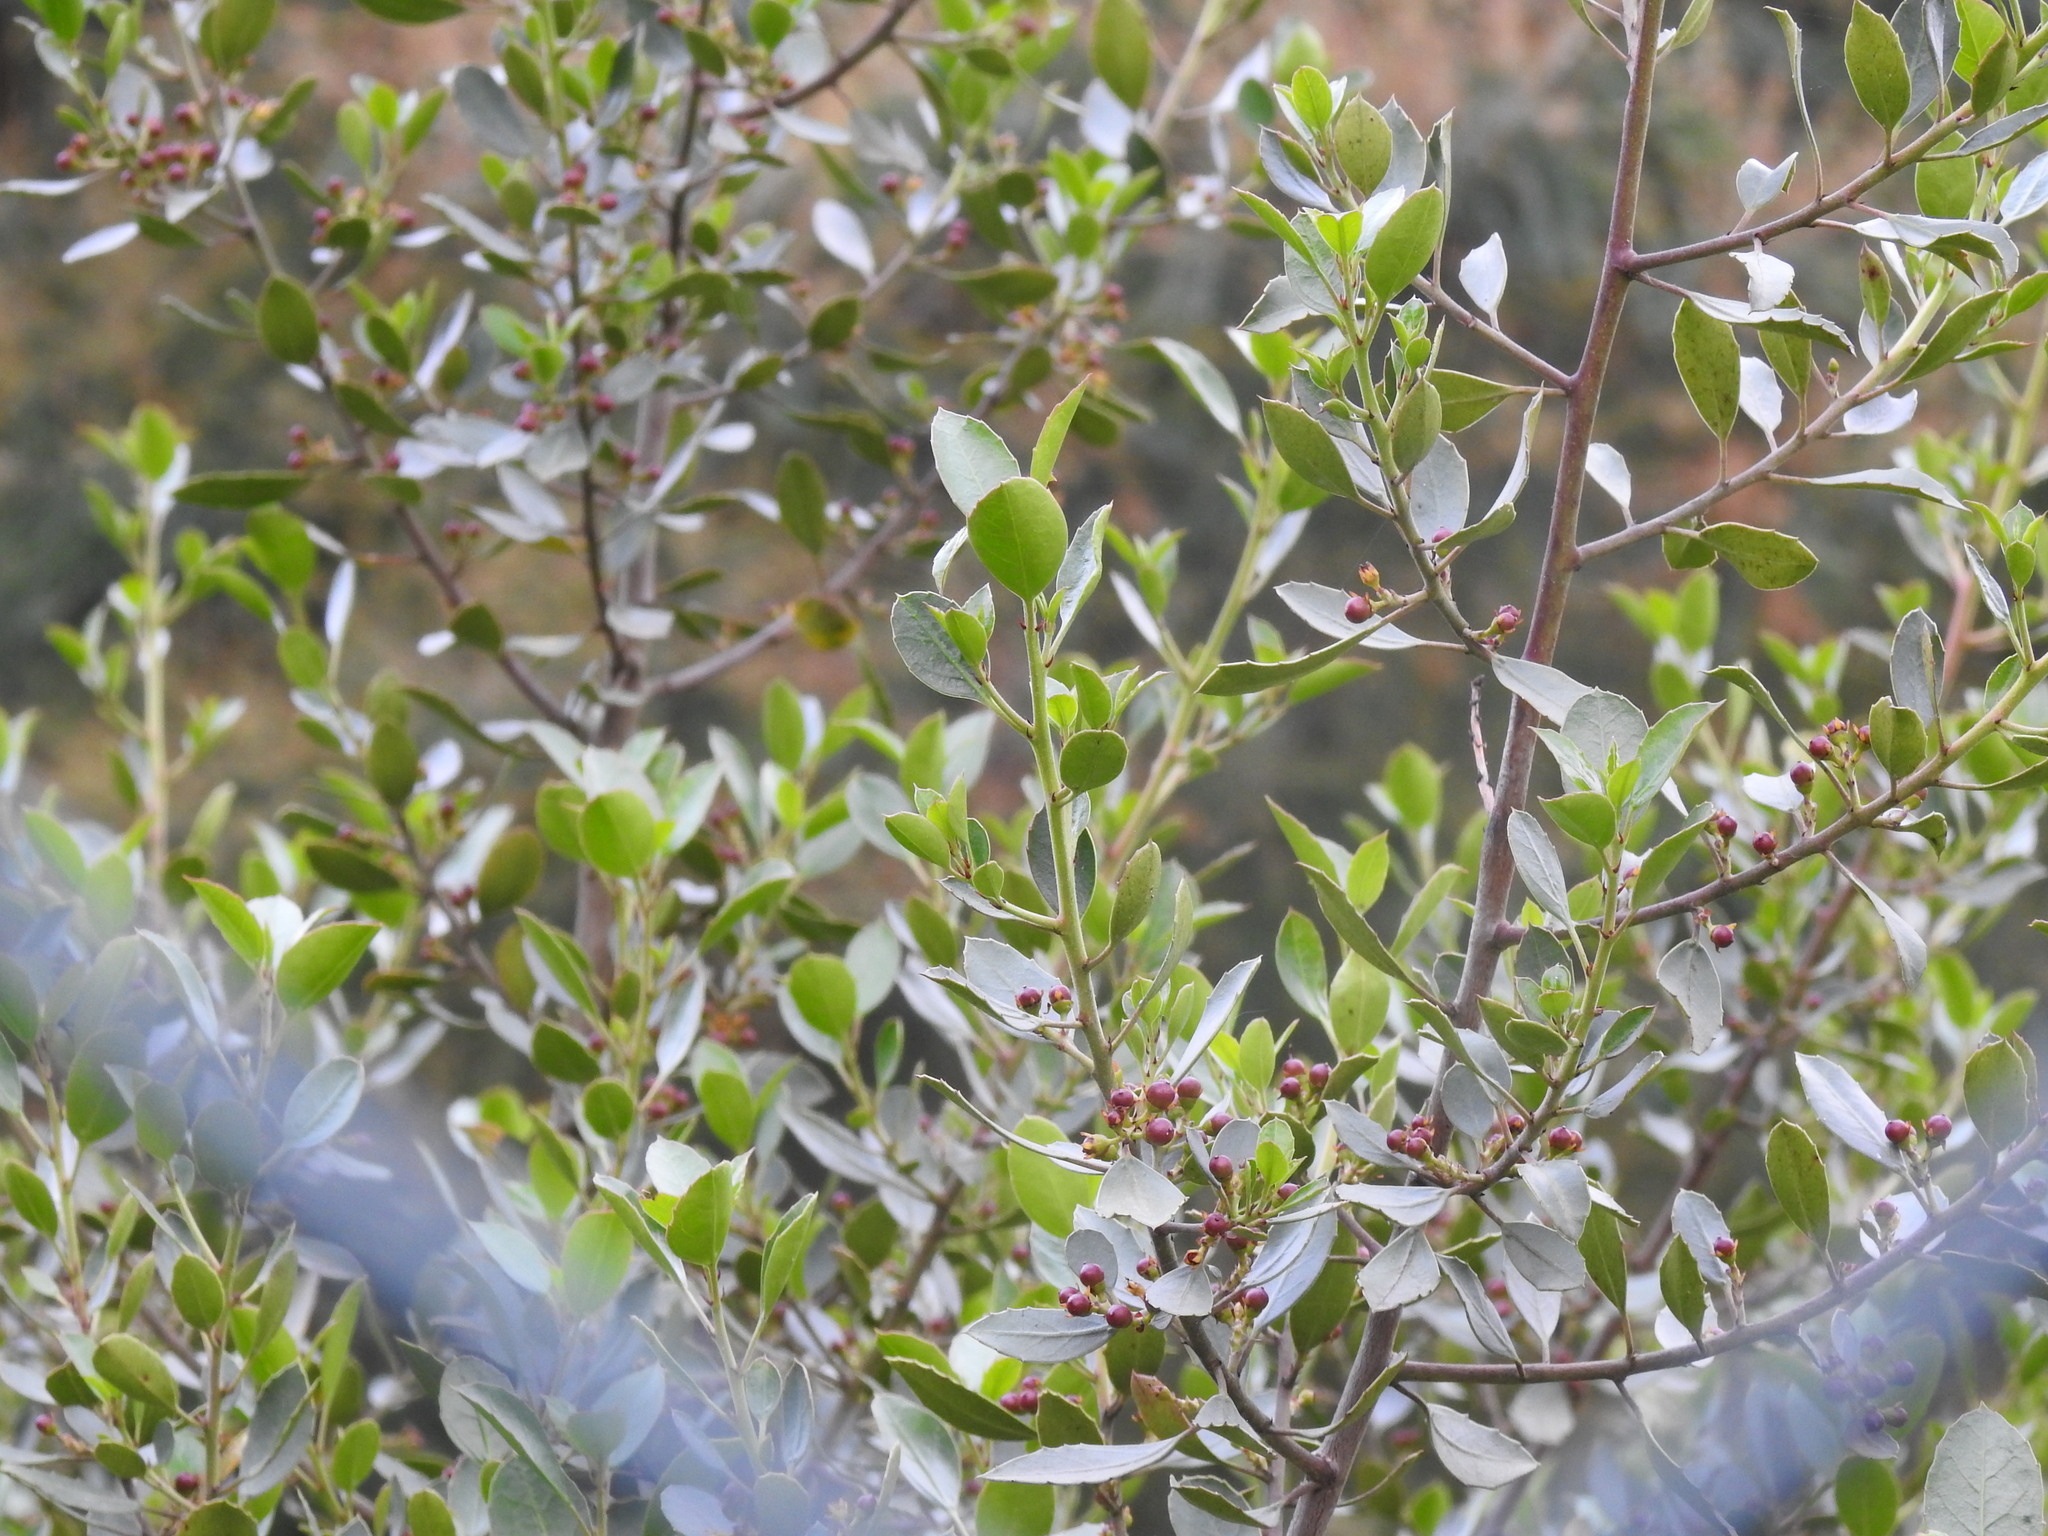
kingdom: Plantae
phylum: Tracheophyta
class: Magnoliopsida
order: Rosales
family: Rhamnaceae
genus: Rhamnus
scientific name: Rhamnus alaternus
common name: Mediterranean buckthorn
